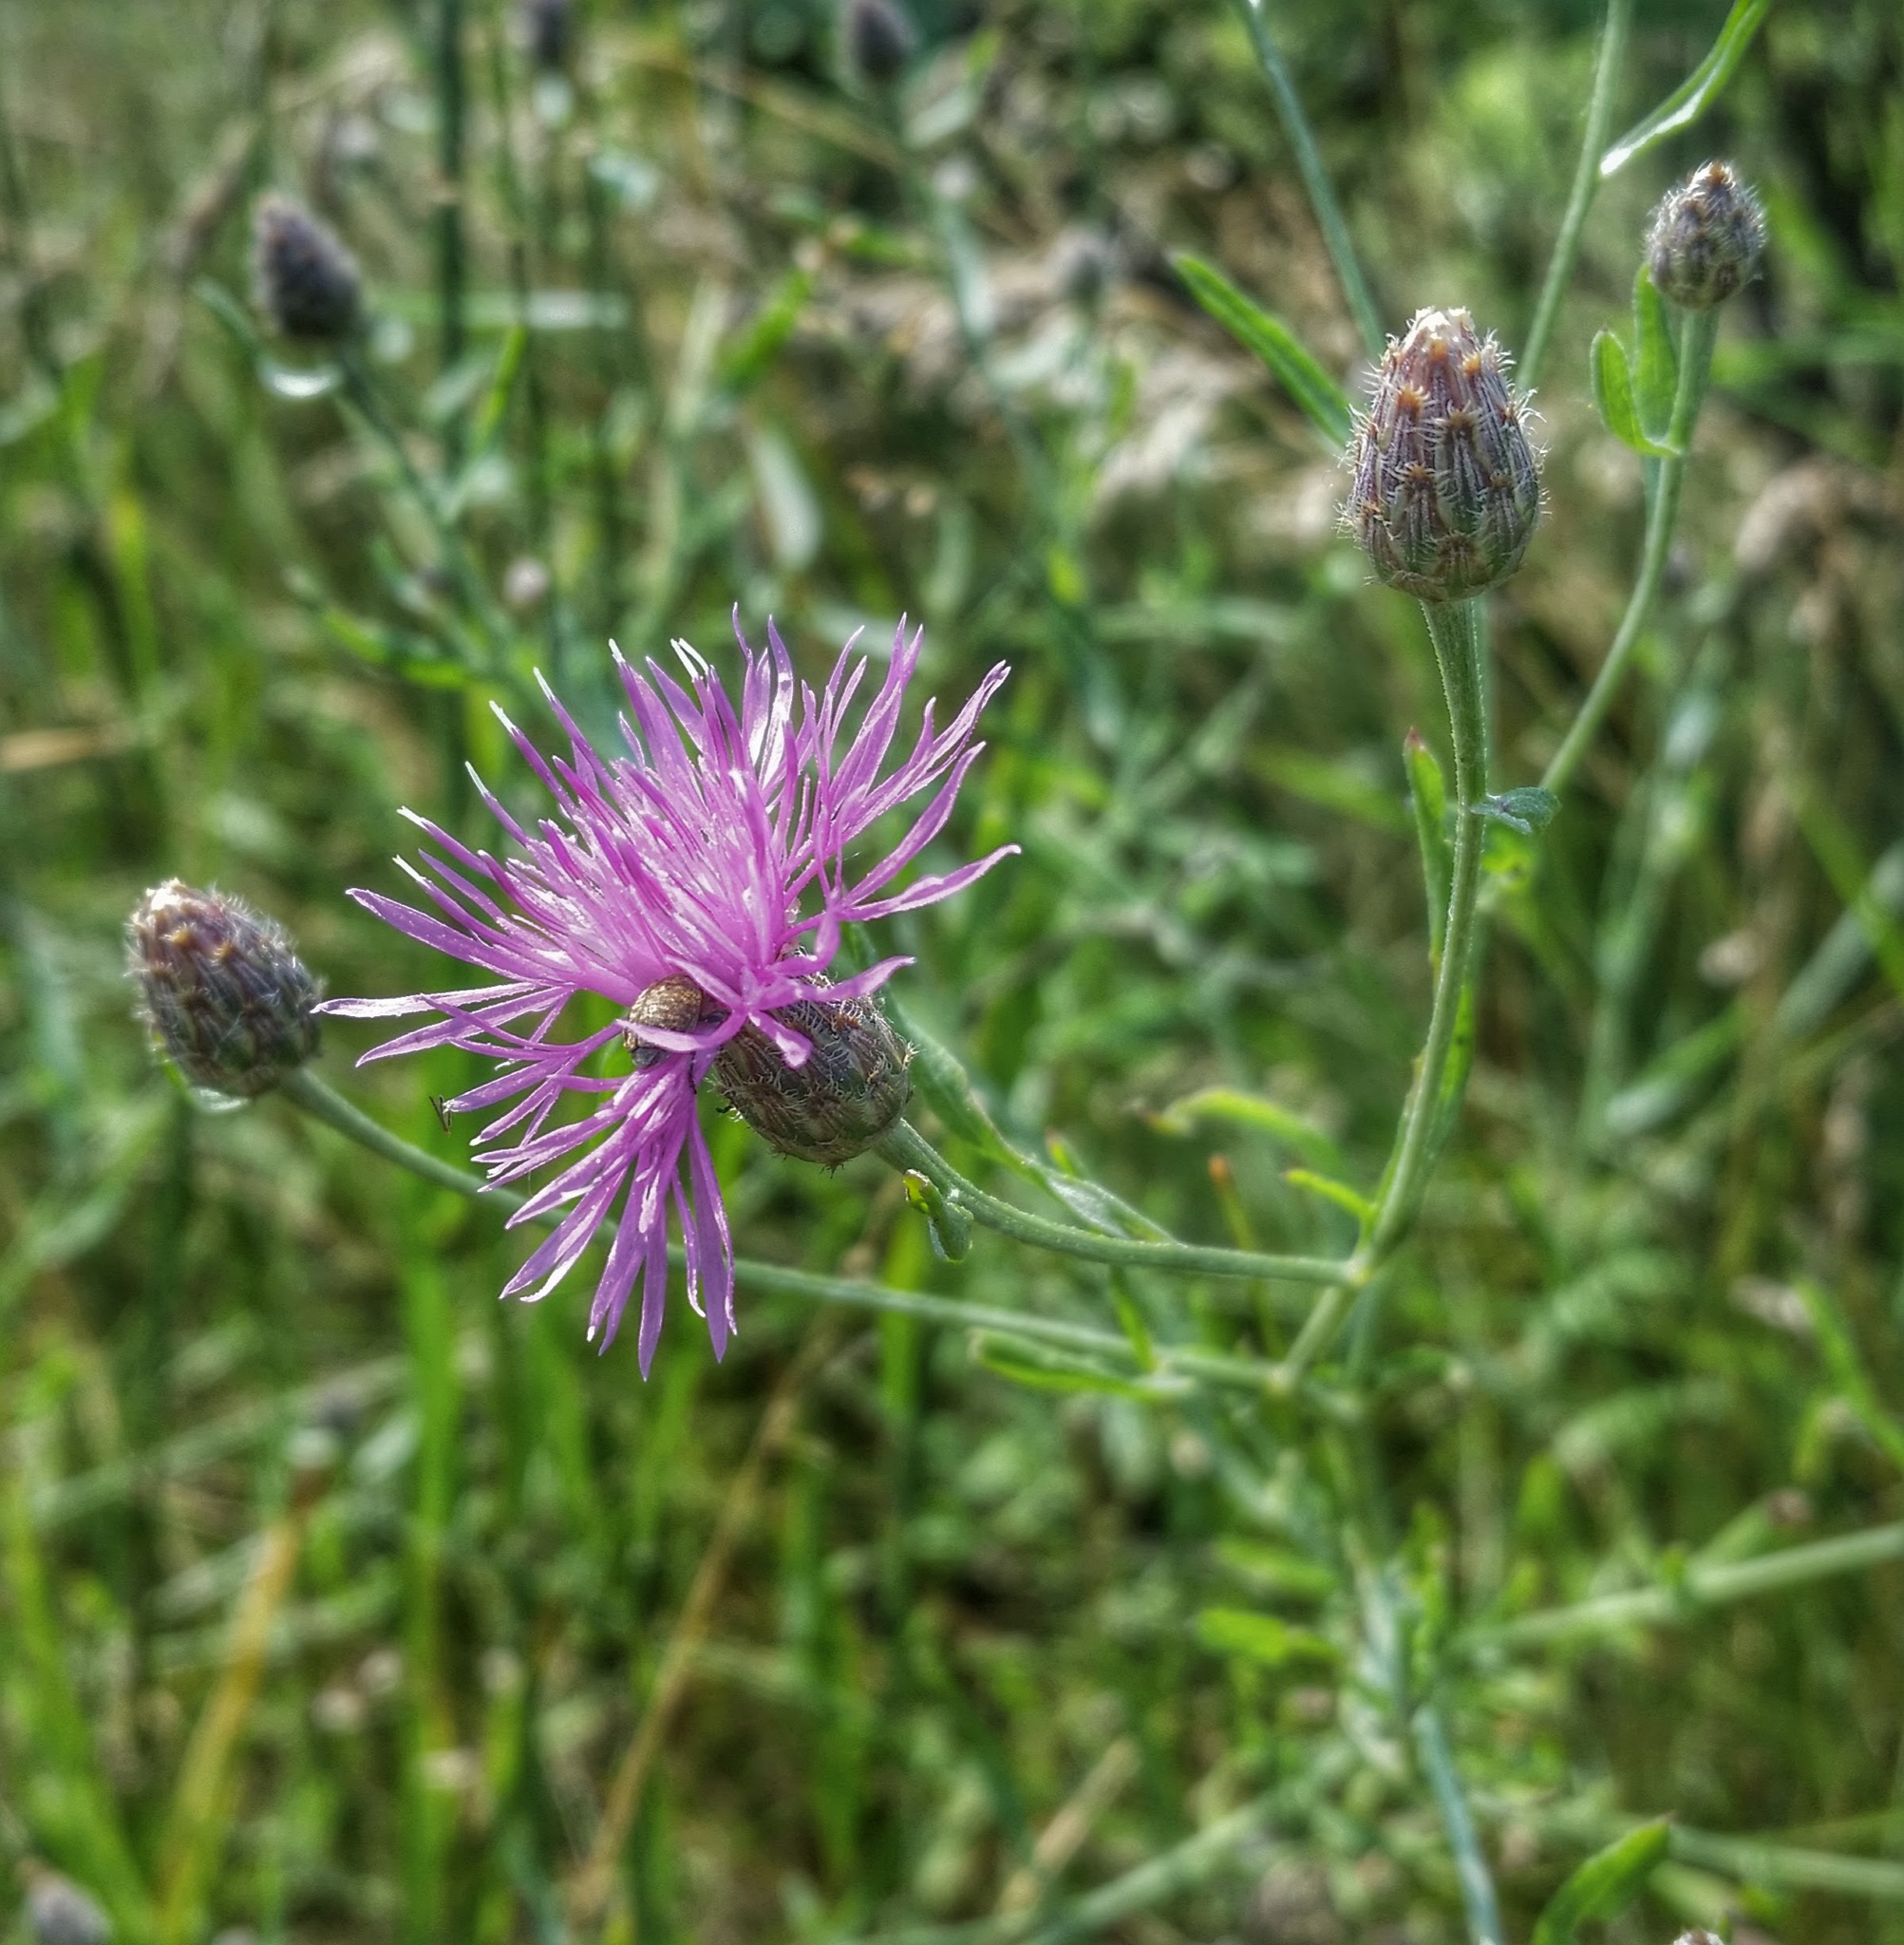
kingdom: Plantae
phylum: Tracheophyta
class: Magnoliopsida
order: Asterales
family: Asteraceae
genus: Centaurea
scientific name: Centaurea australis
